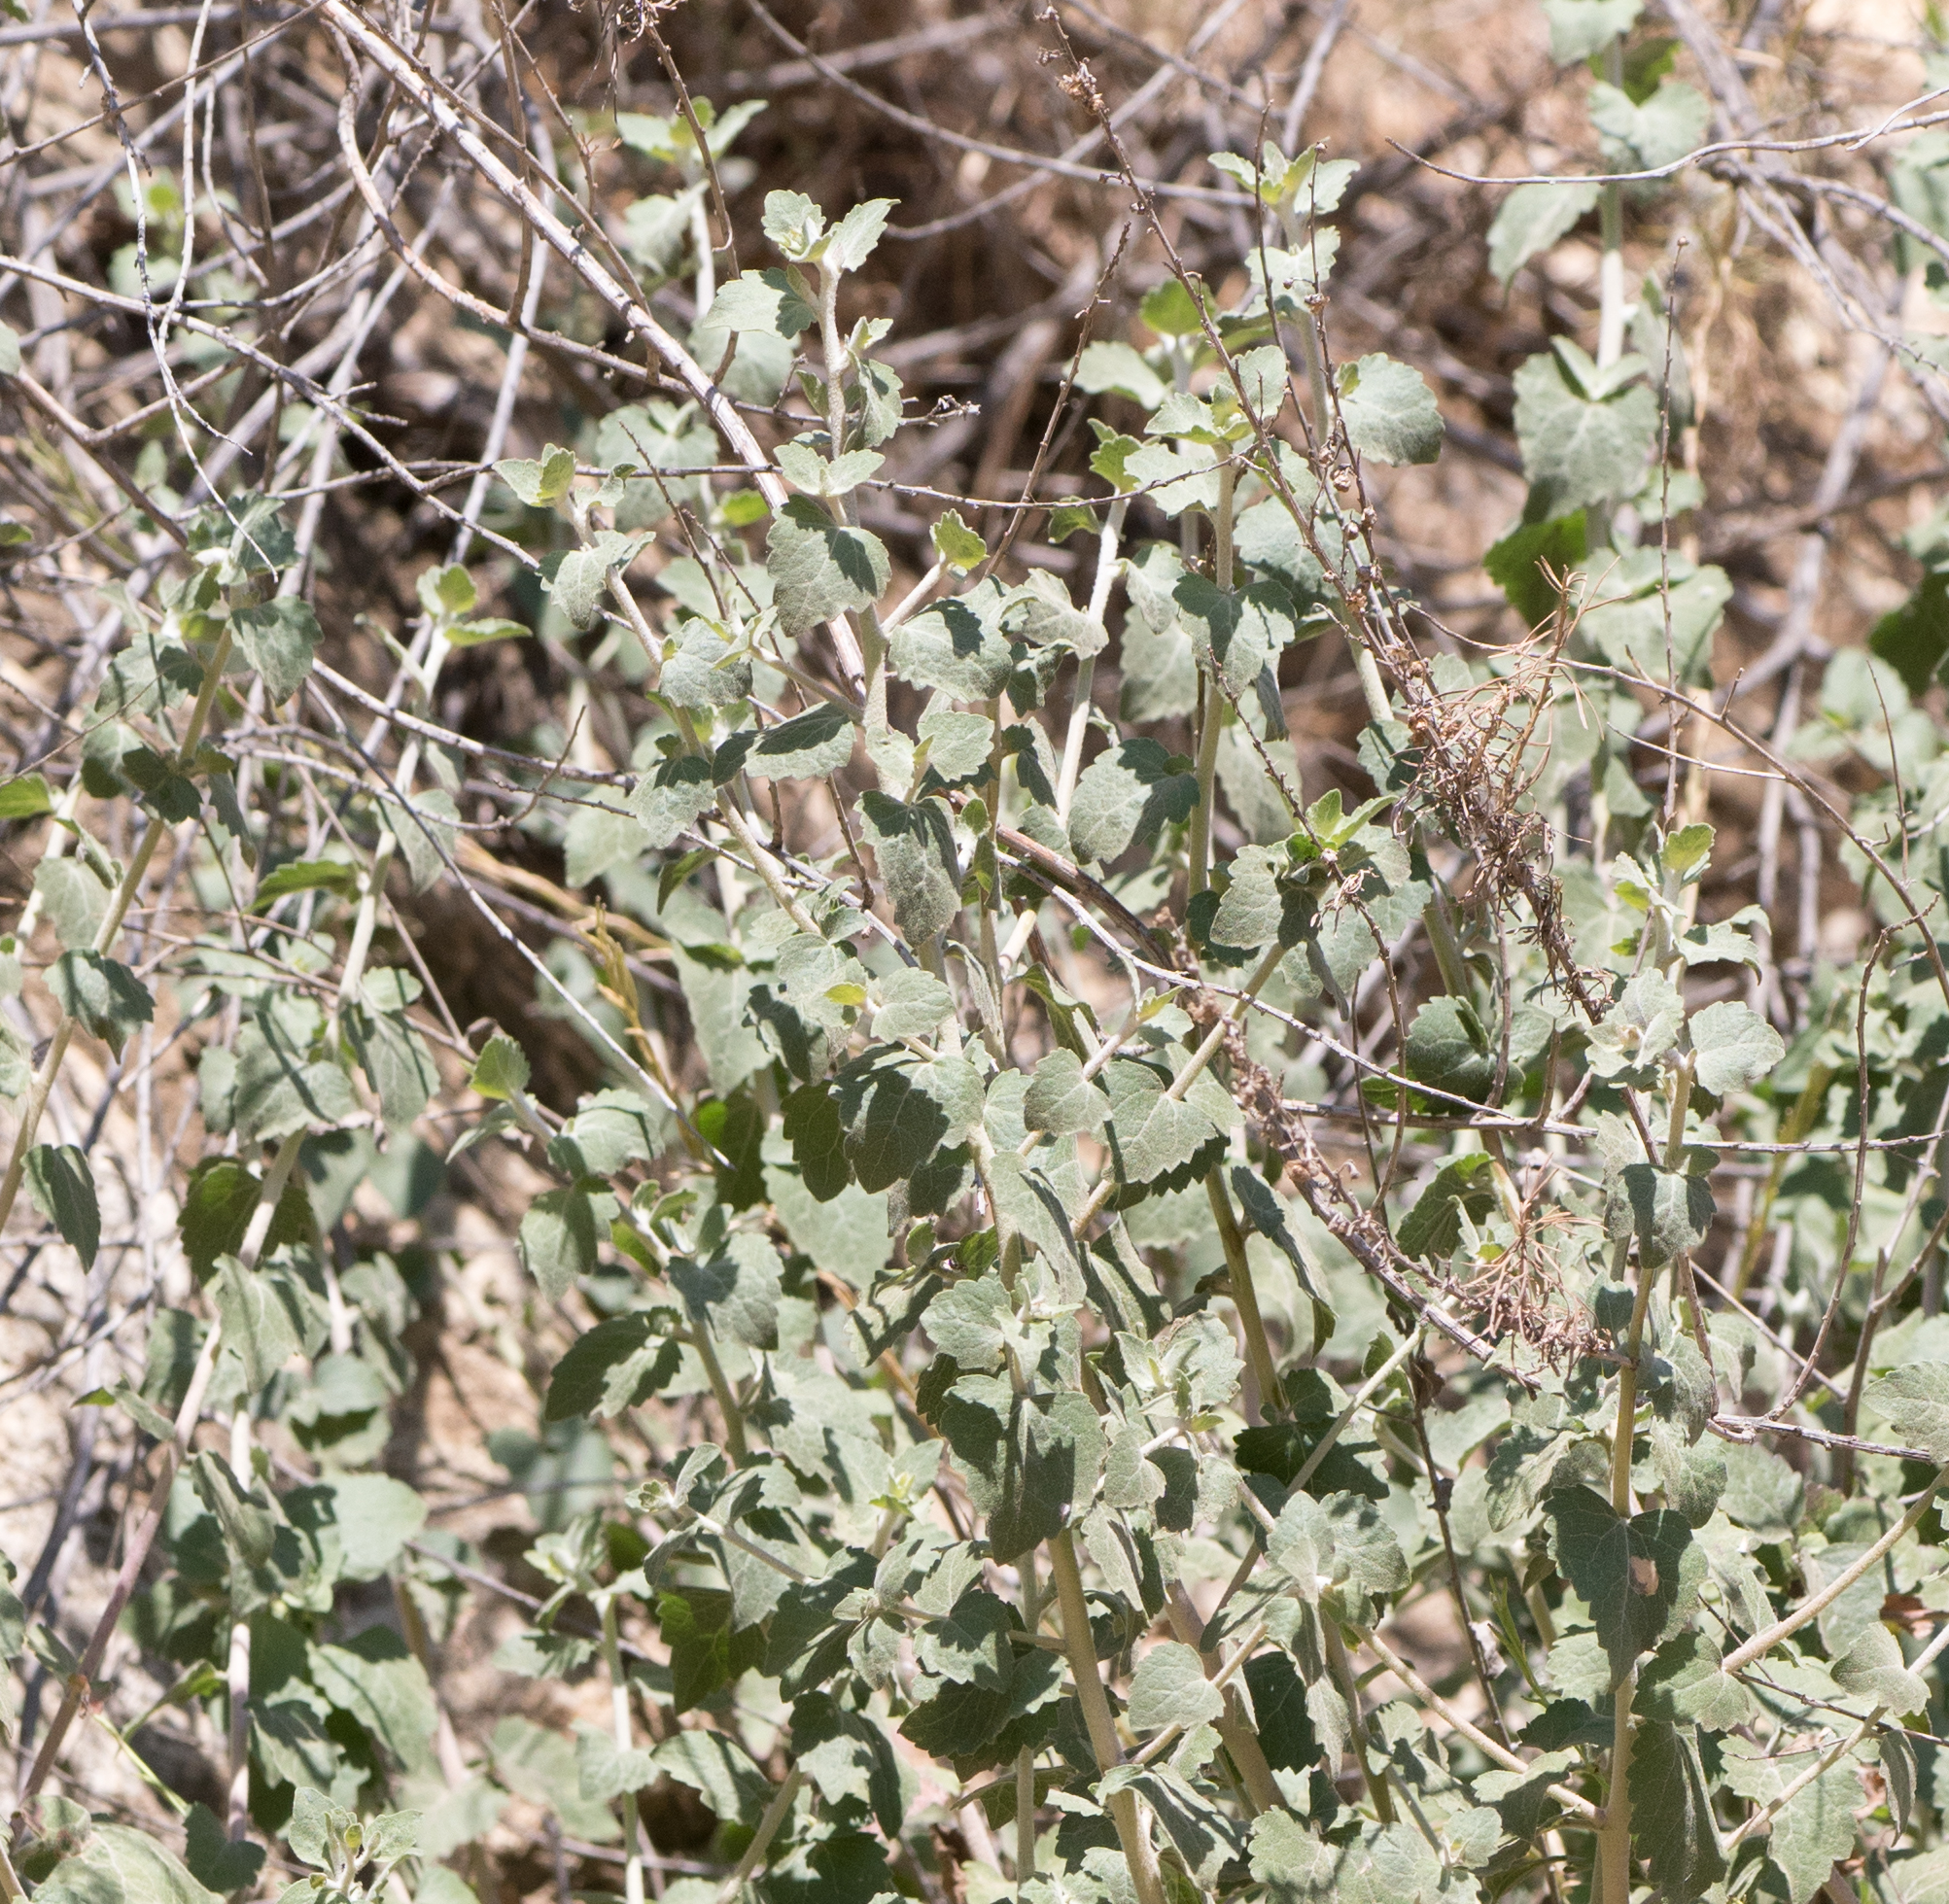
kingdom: Plantae
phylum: Tracheophyta
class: Magnoliopsida
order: Asterales
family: Asteraceae
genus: Brickellia
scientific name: Brickellia californica
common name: California brickellbush
